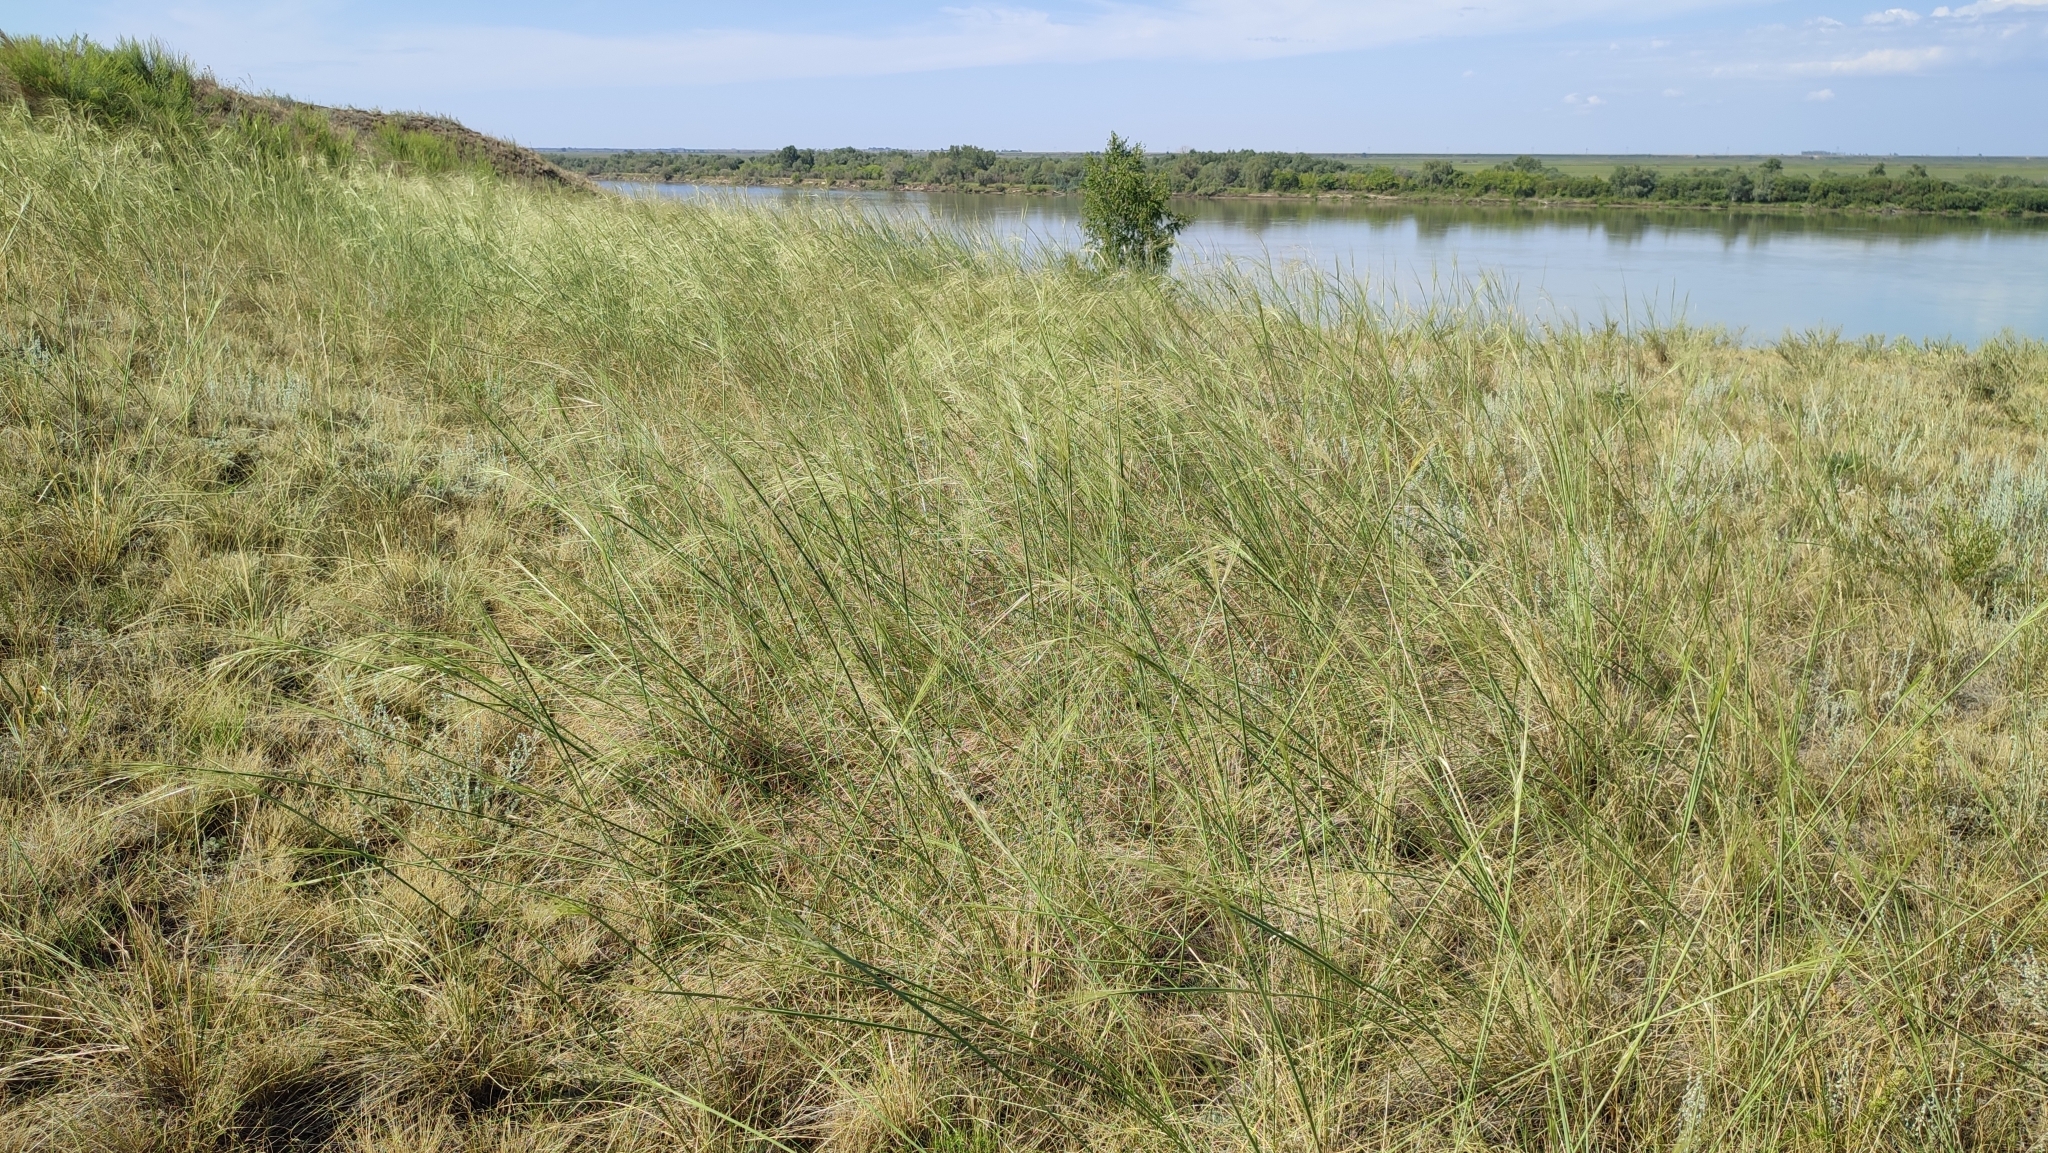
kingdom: Plantae
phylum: Tracheophyta
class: Liliopsida
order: Poales
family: Poaceae
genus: Stipa
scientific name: Stipa capillata
